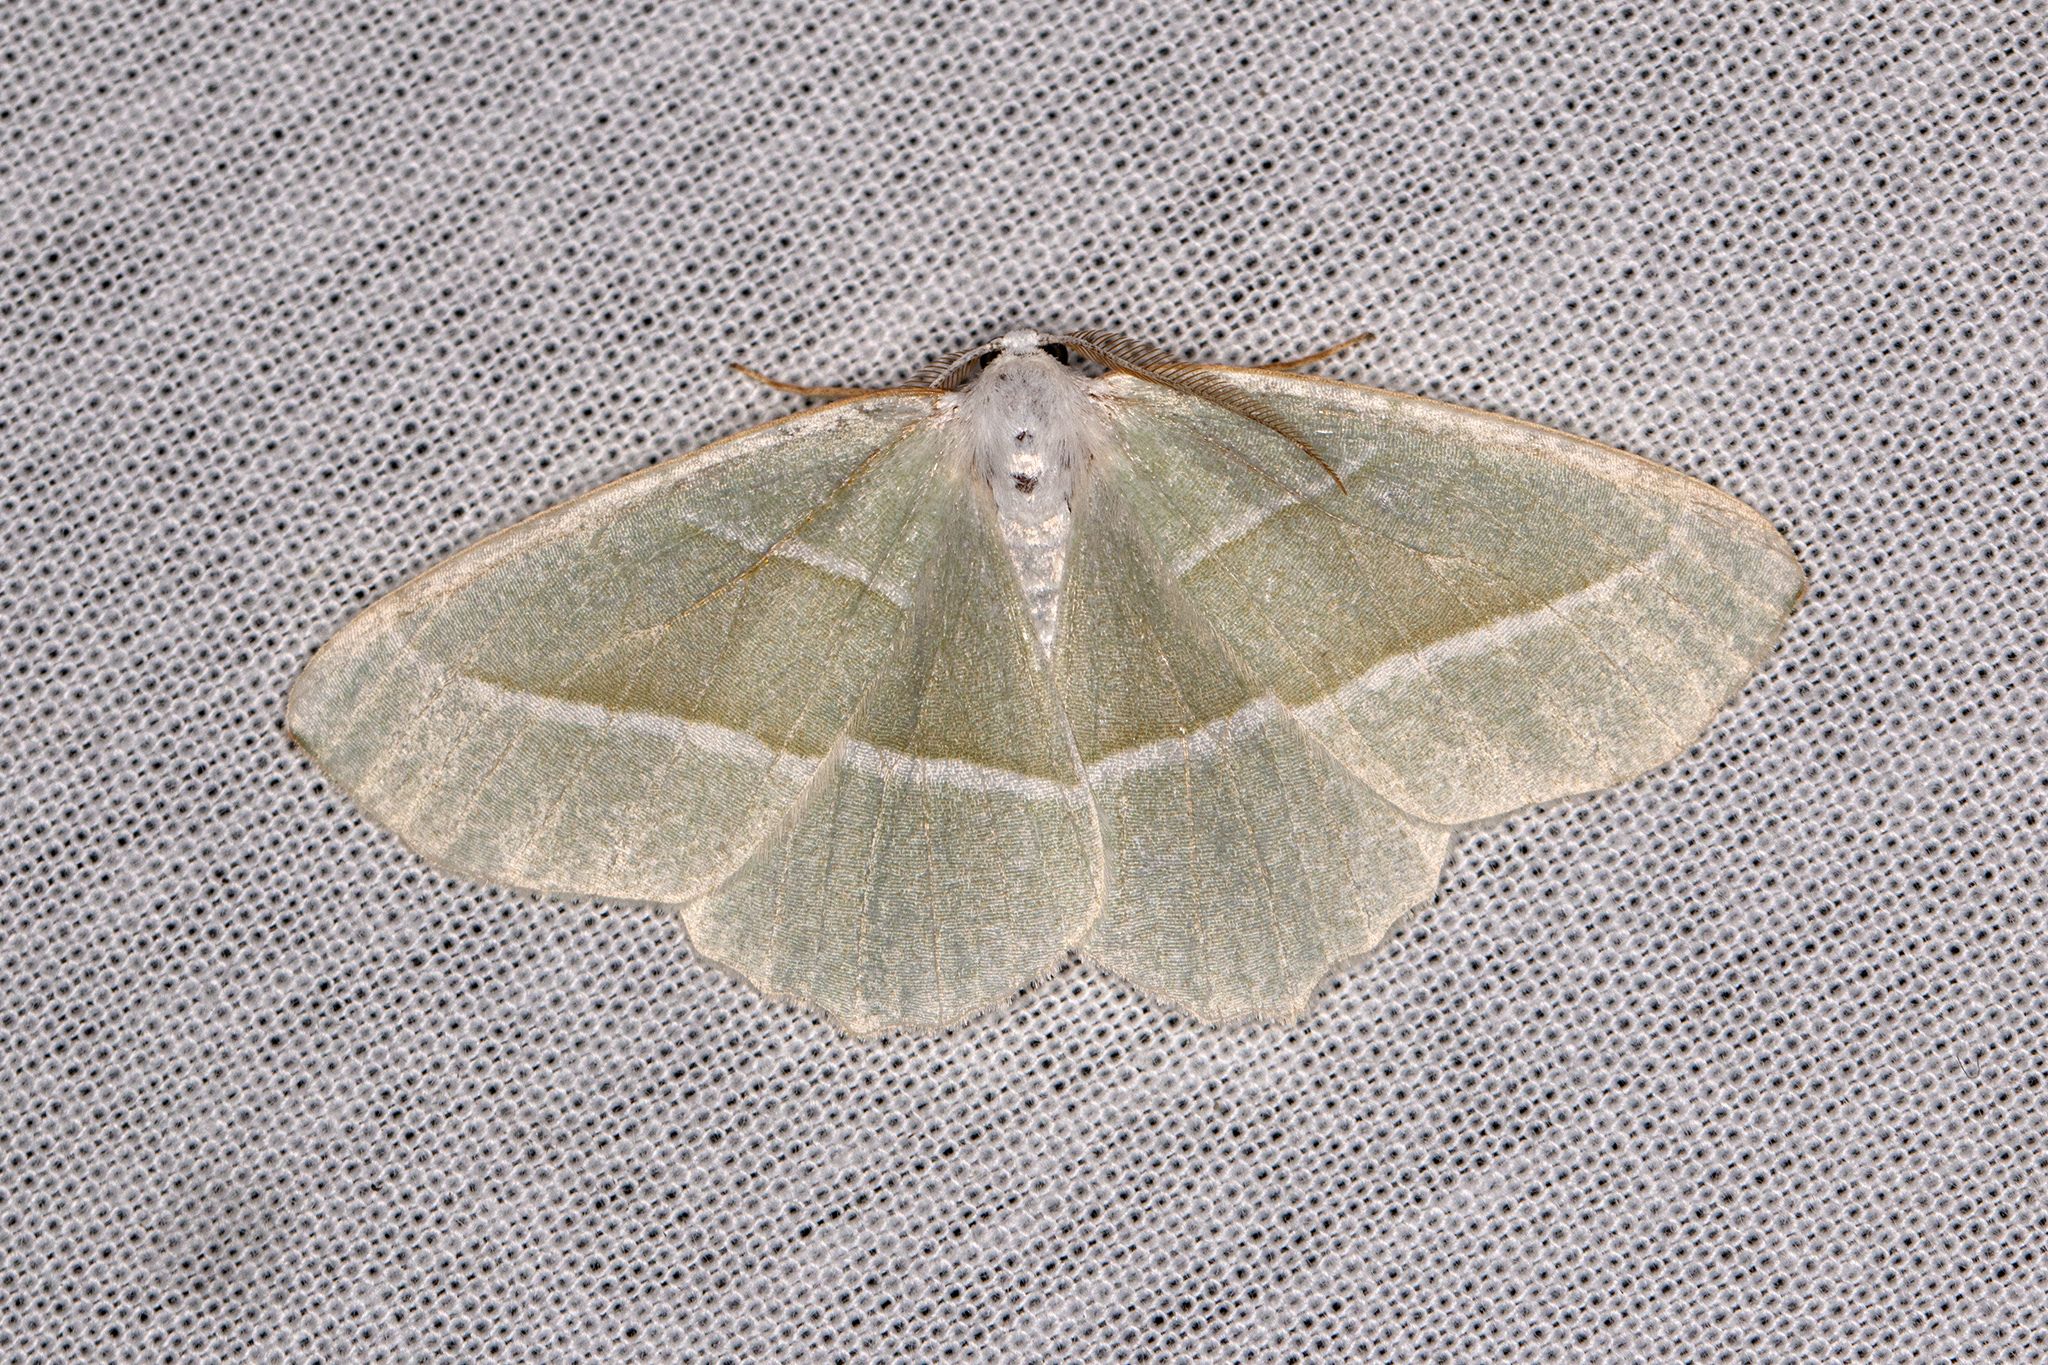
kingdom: Animalia
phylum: Arthropoda
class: Insecta
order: Lepidoptera
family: Geometridae
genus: Campaea
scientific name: Campaea margaritaria
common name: Light emerald
